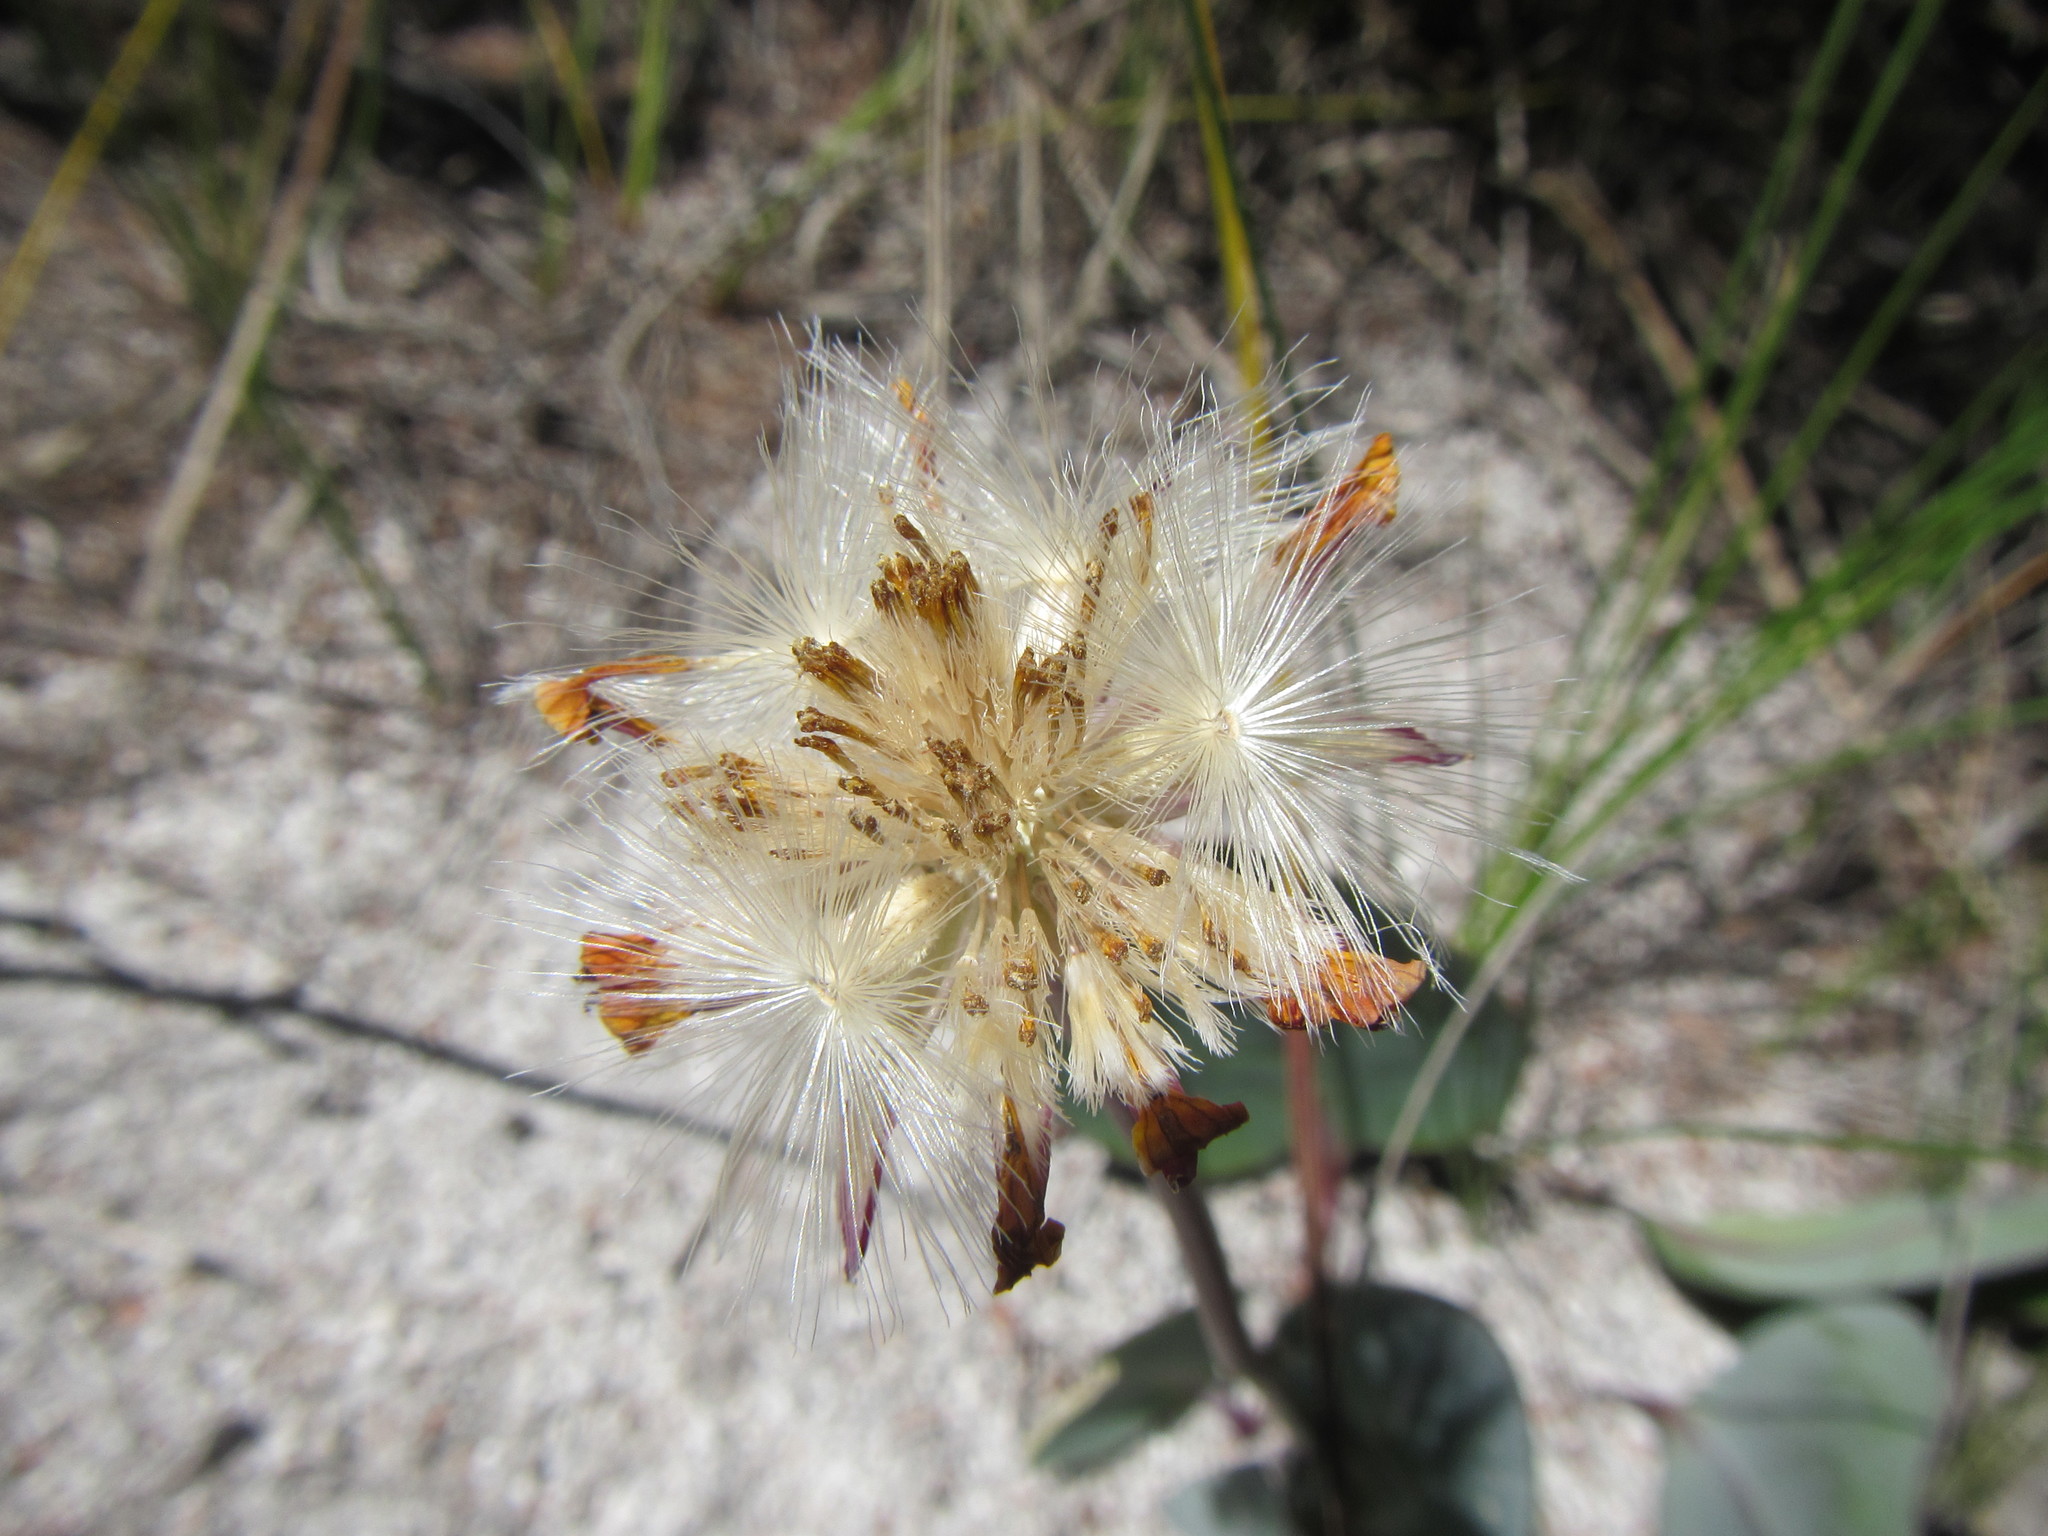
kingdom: Plantae
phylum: Tracheophyta
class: Magnoliopsida
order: Asterales
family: Asteraceae
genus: Othonna
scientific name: Othonna bulbosa
